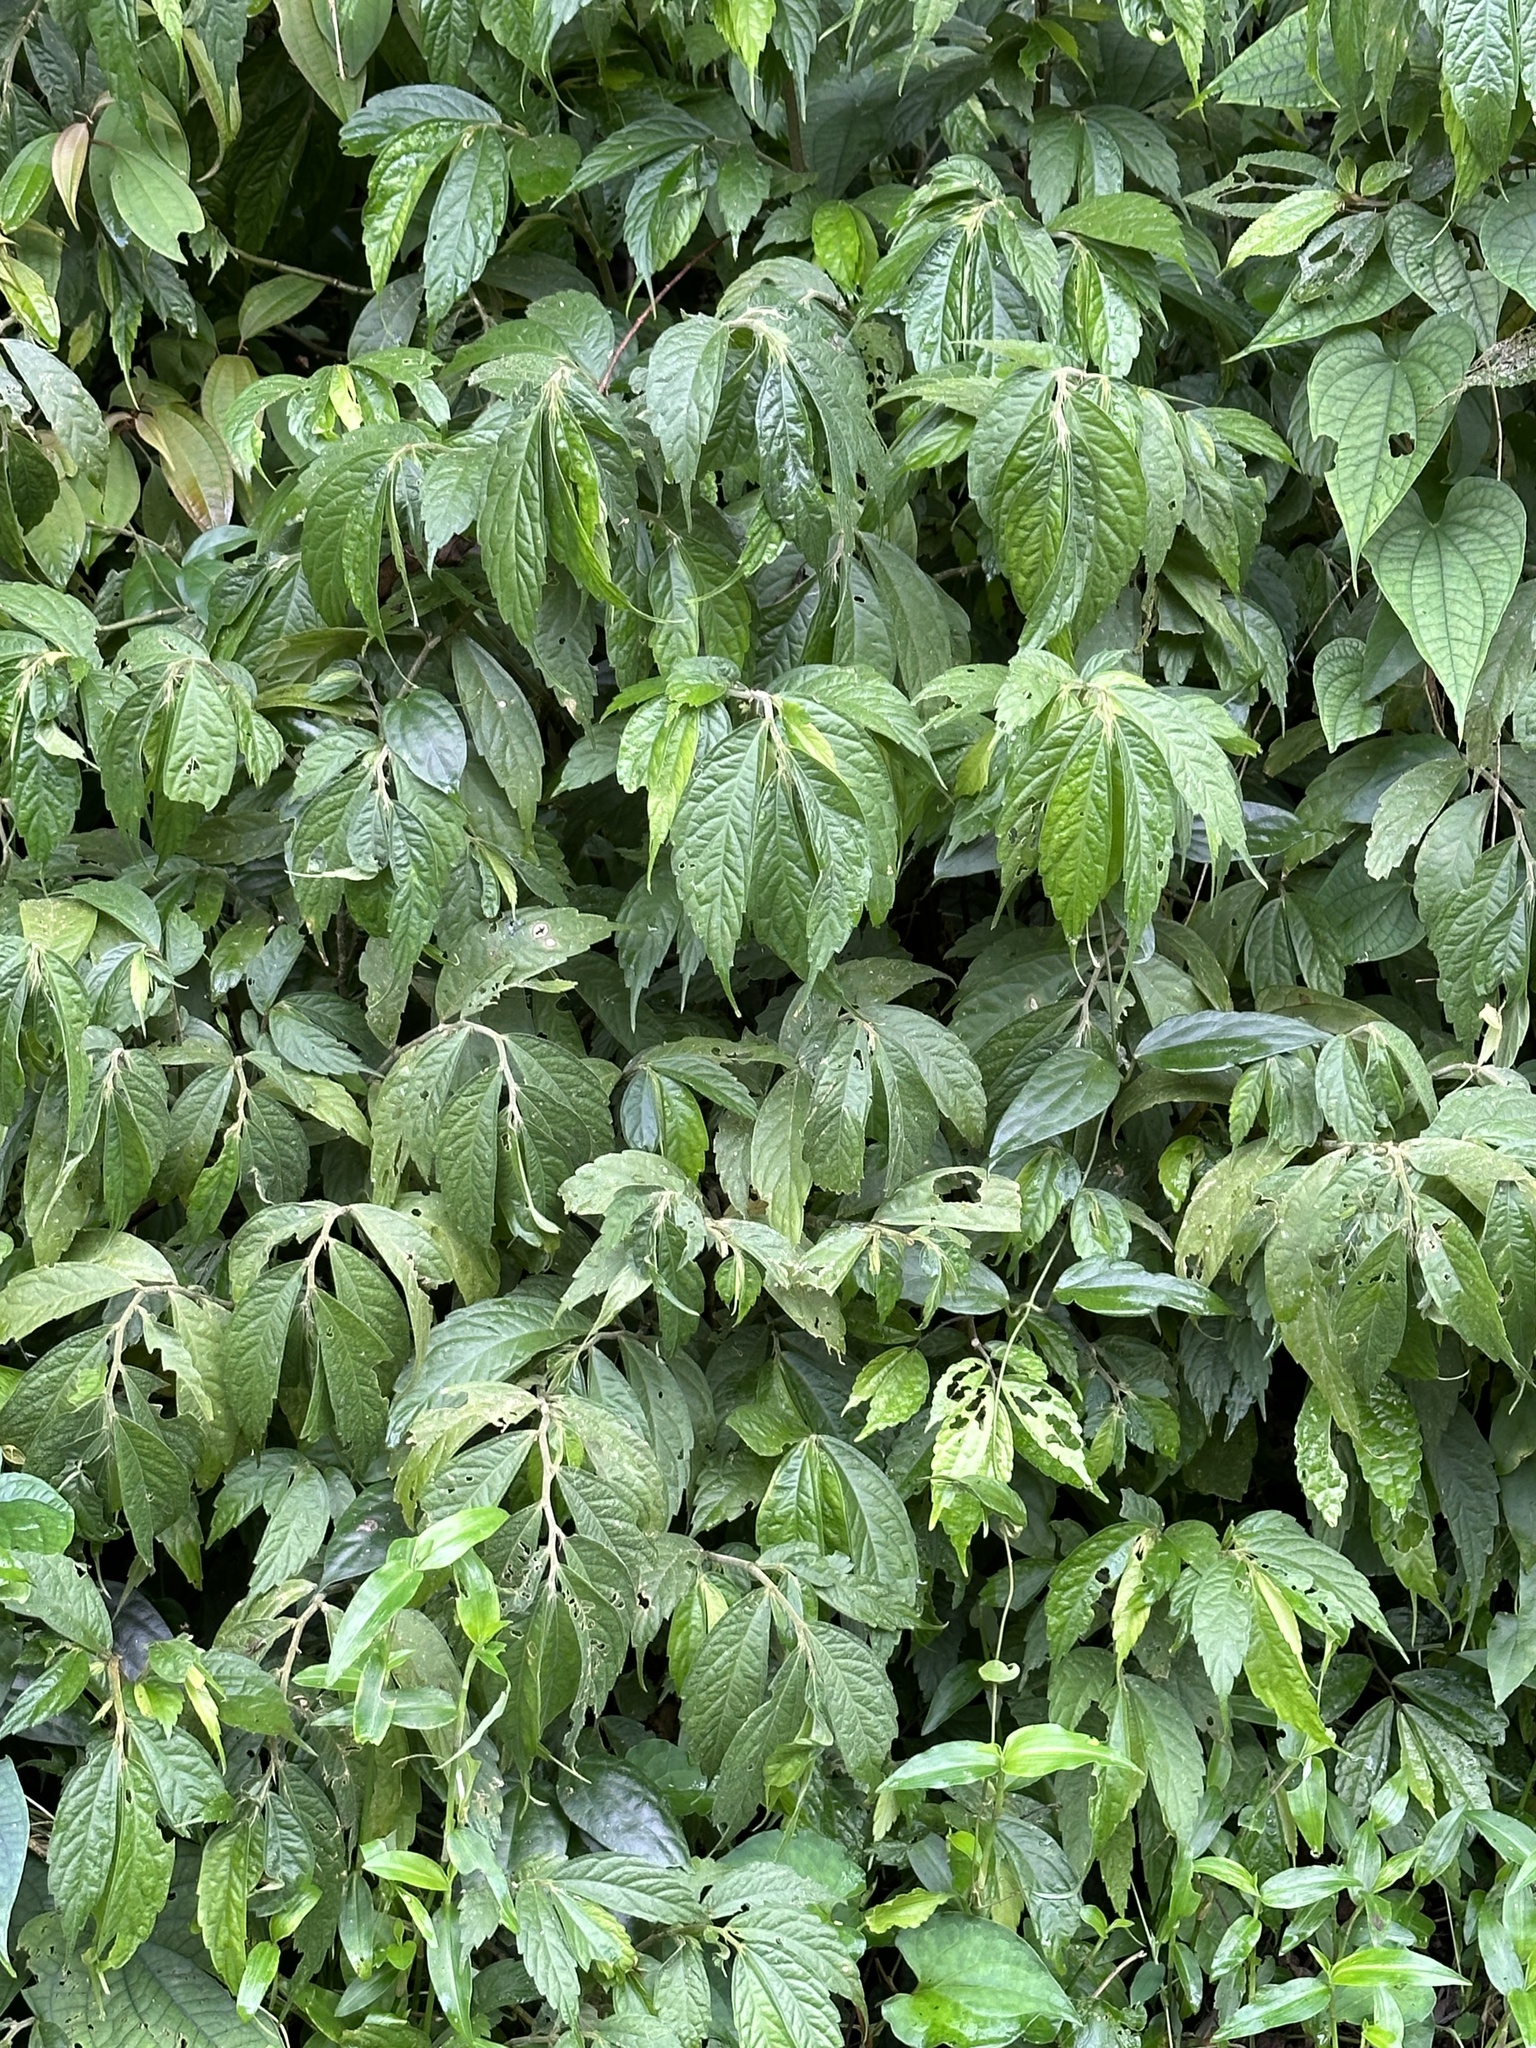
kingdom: Plantae
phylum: Tracheophyta
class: Magnoliopsida
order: Rosales
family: Urticaceae
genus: Elatostema
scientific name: Elatostema lineolatum
